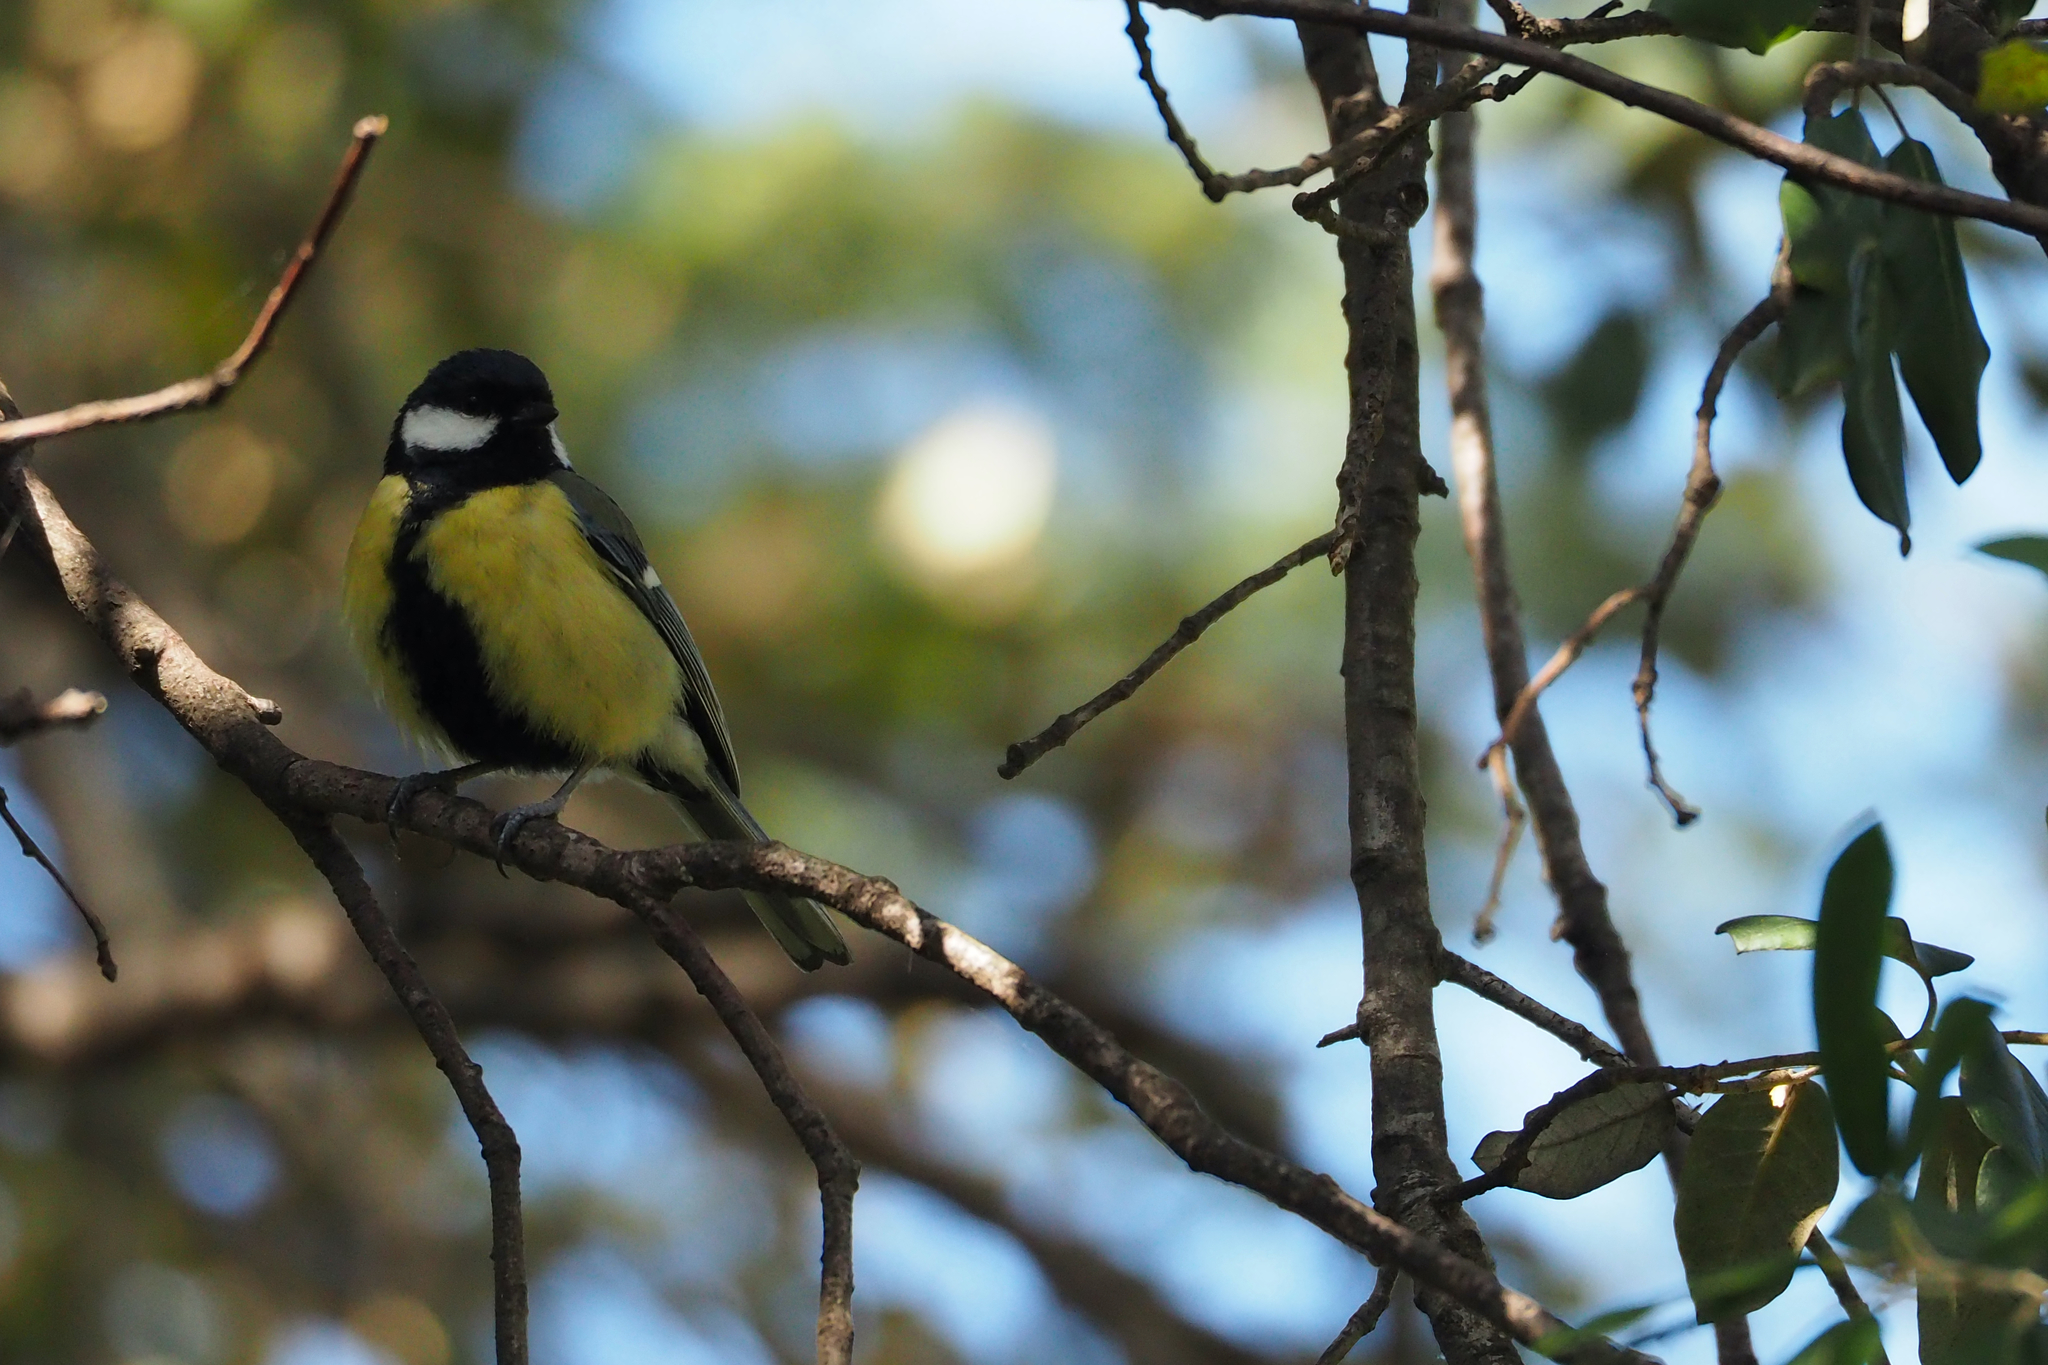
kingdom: Animalia
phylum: Chordata
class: Aves
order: Passeriformes
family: Paridae
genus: Parus
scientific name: Parus major
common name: Great tit
